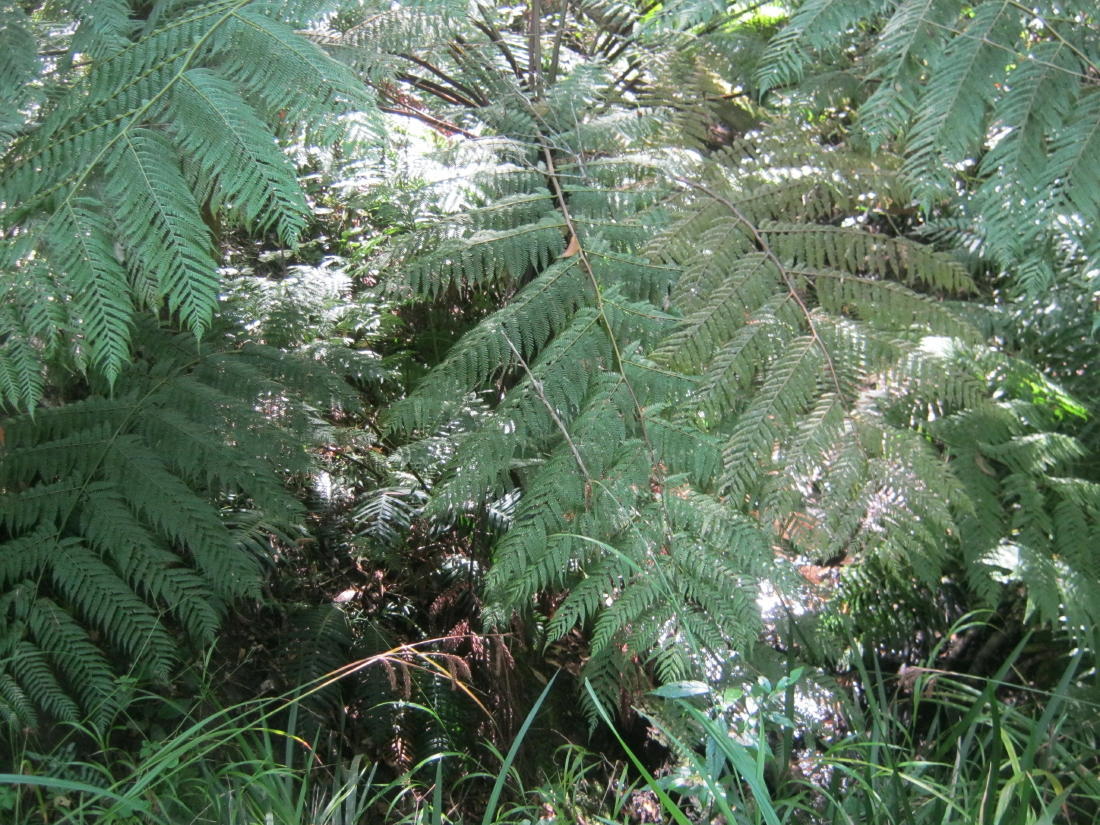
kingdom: Plantae
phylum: Tracheophyta
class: Polypodiopsida
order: Cyatheales
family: Cyatheaceae
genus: Gymnosphaera
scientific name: Gymnosphaera capensis
